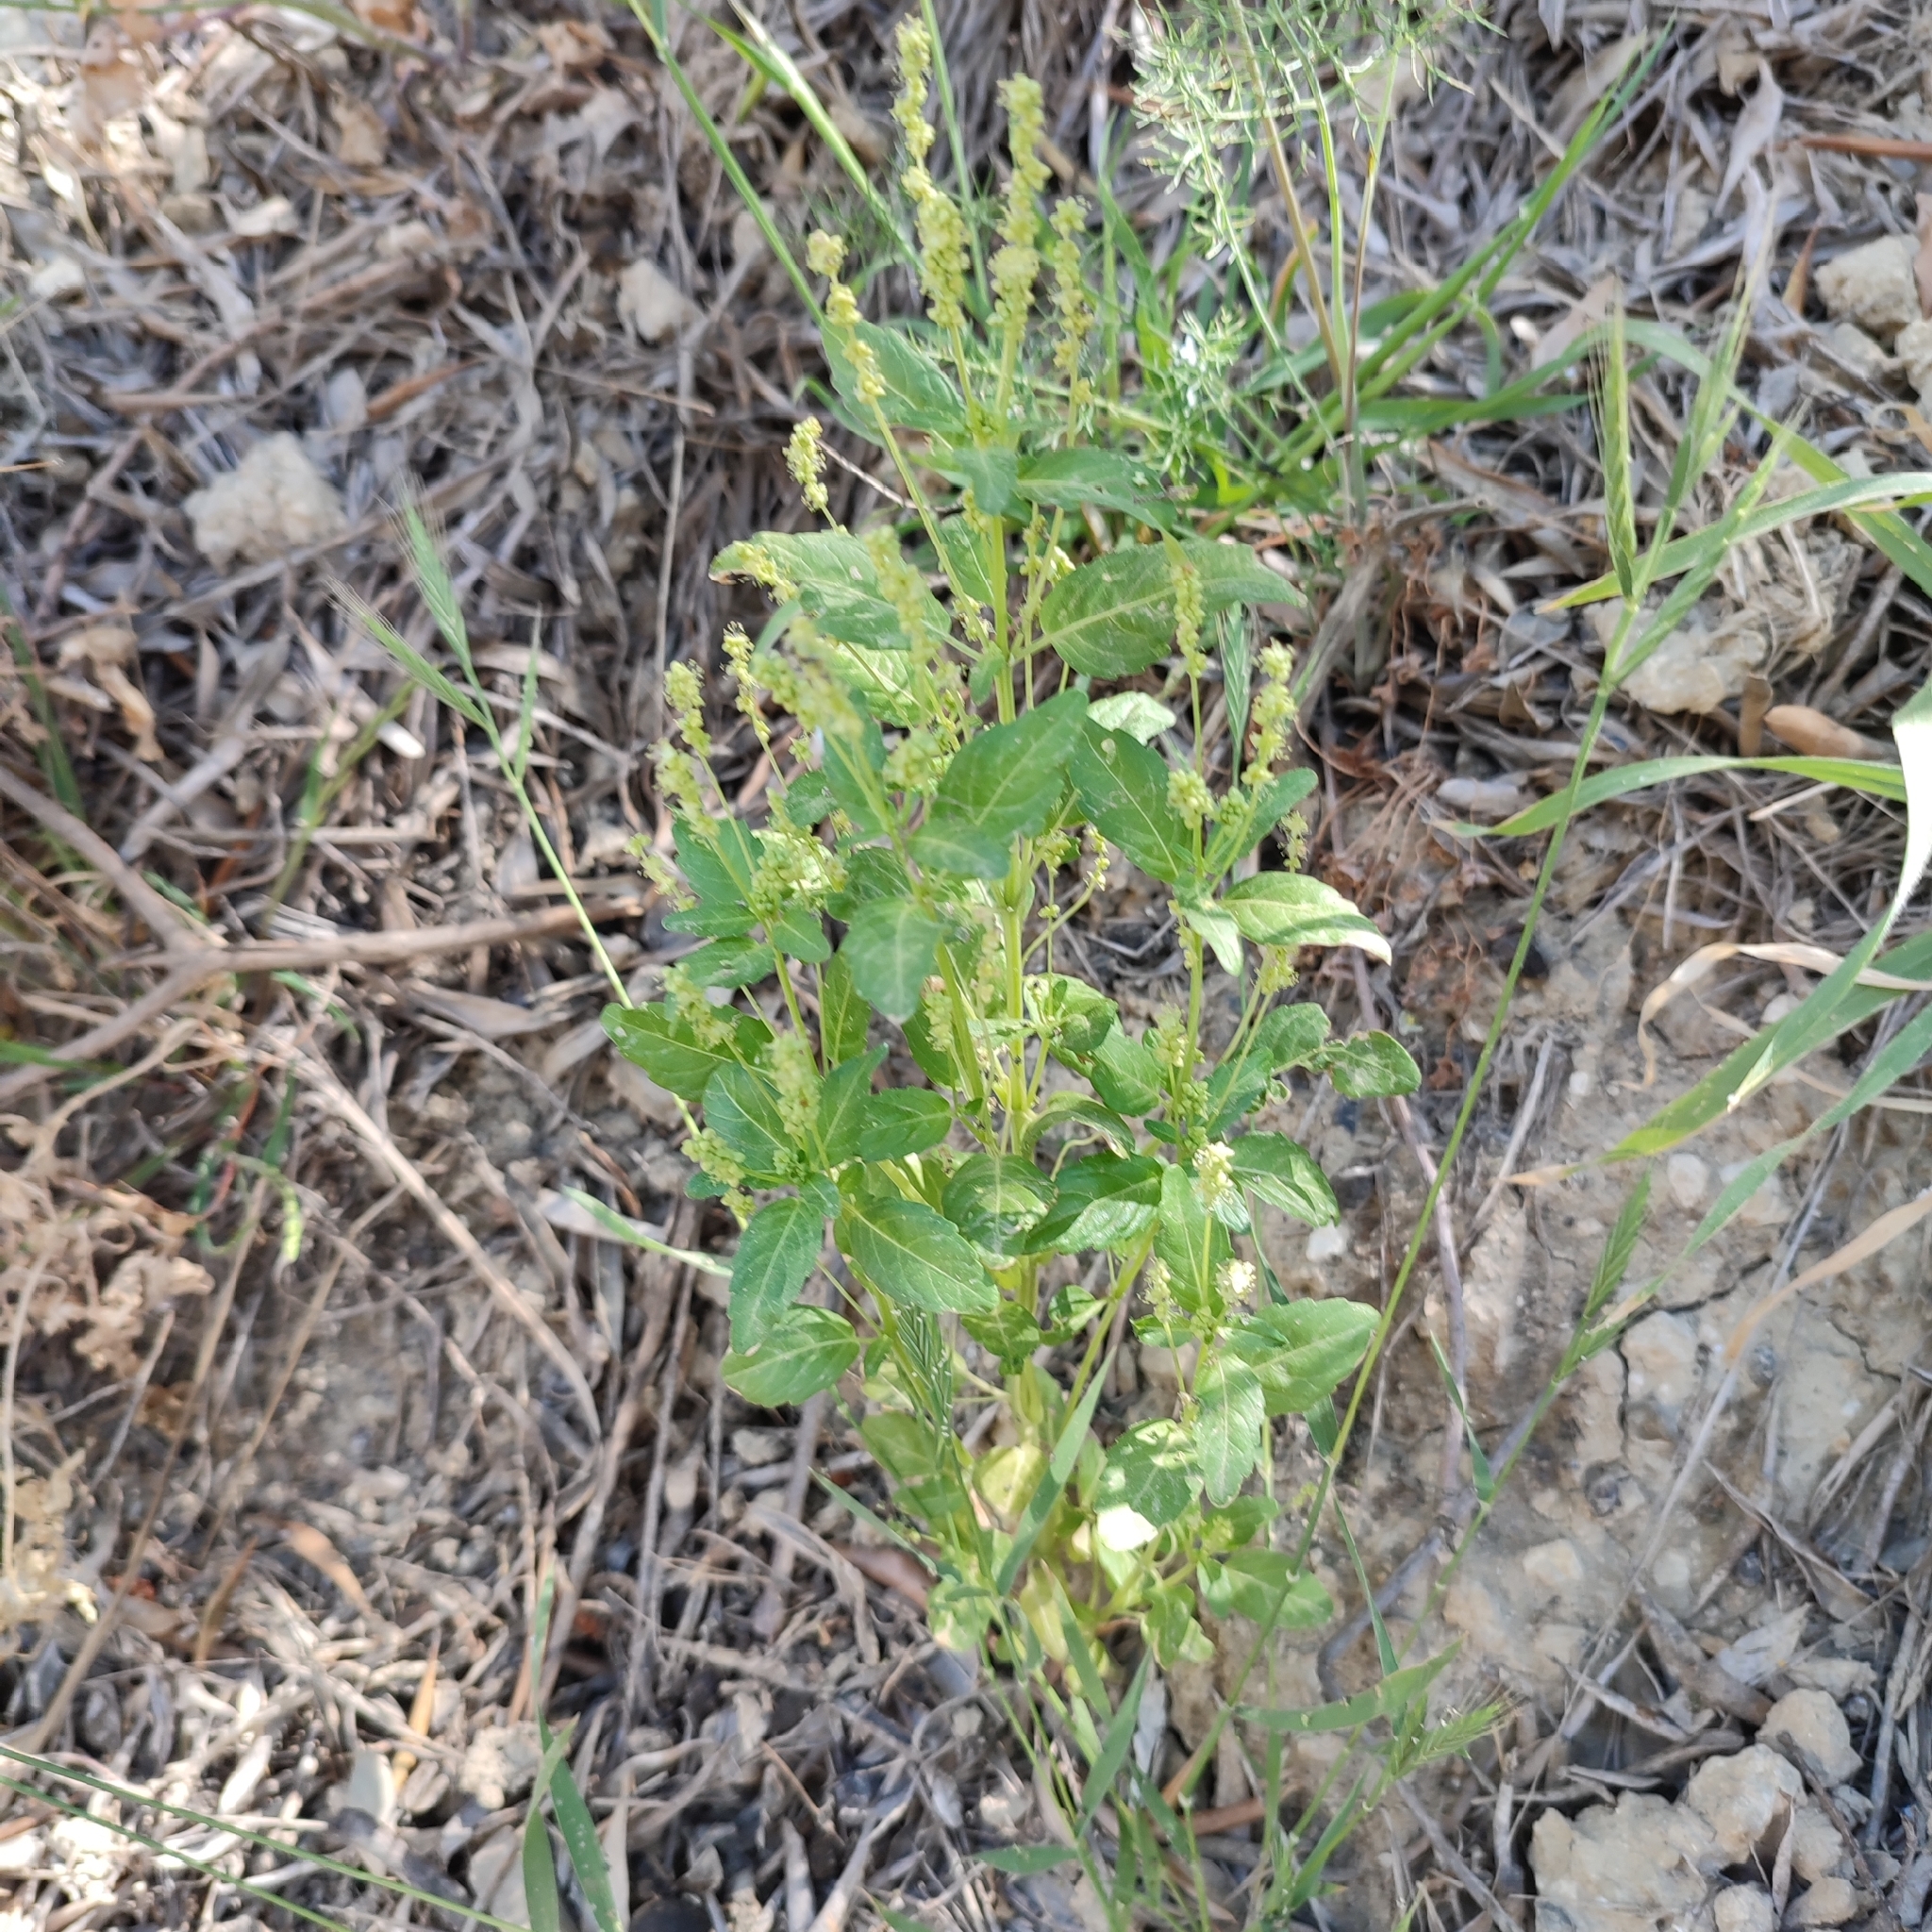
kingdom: Plantae
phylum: Tracheophyta
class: Magnoliopsida
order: Malpighiales
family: Euphorbiaceae
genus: Mercurialis
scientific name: Mercurialis annua
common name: Annual mercury
